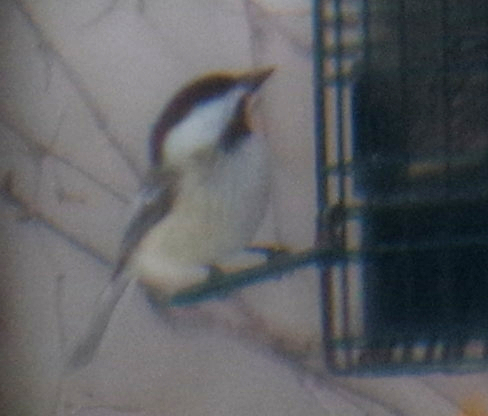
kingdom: Animalia
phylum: Chordata
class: Aves
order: Passeriformes
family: Paridae
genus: Poecile
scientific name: Poecile atricapillus
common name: Black-capped chickadee
